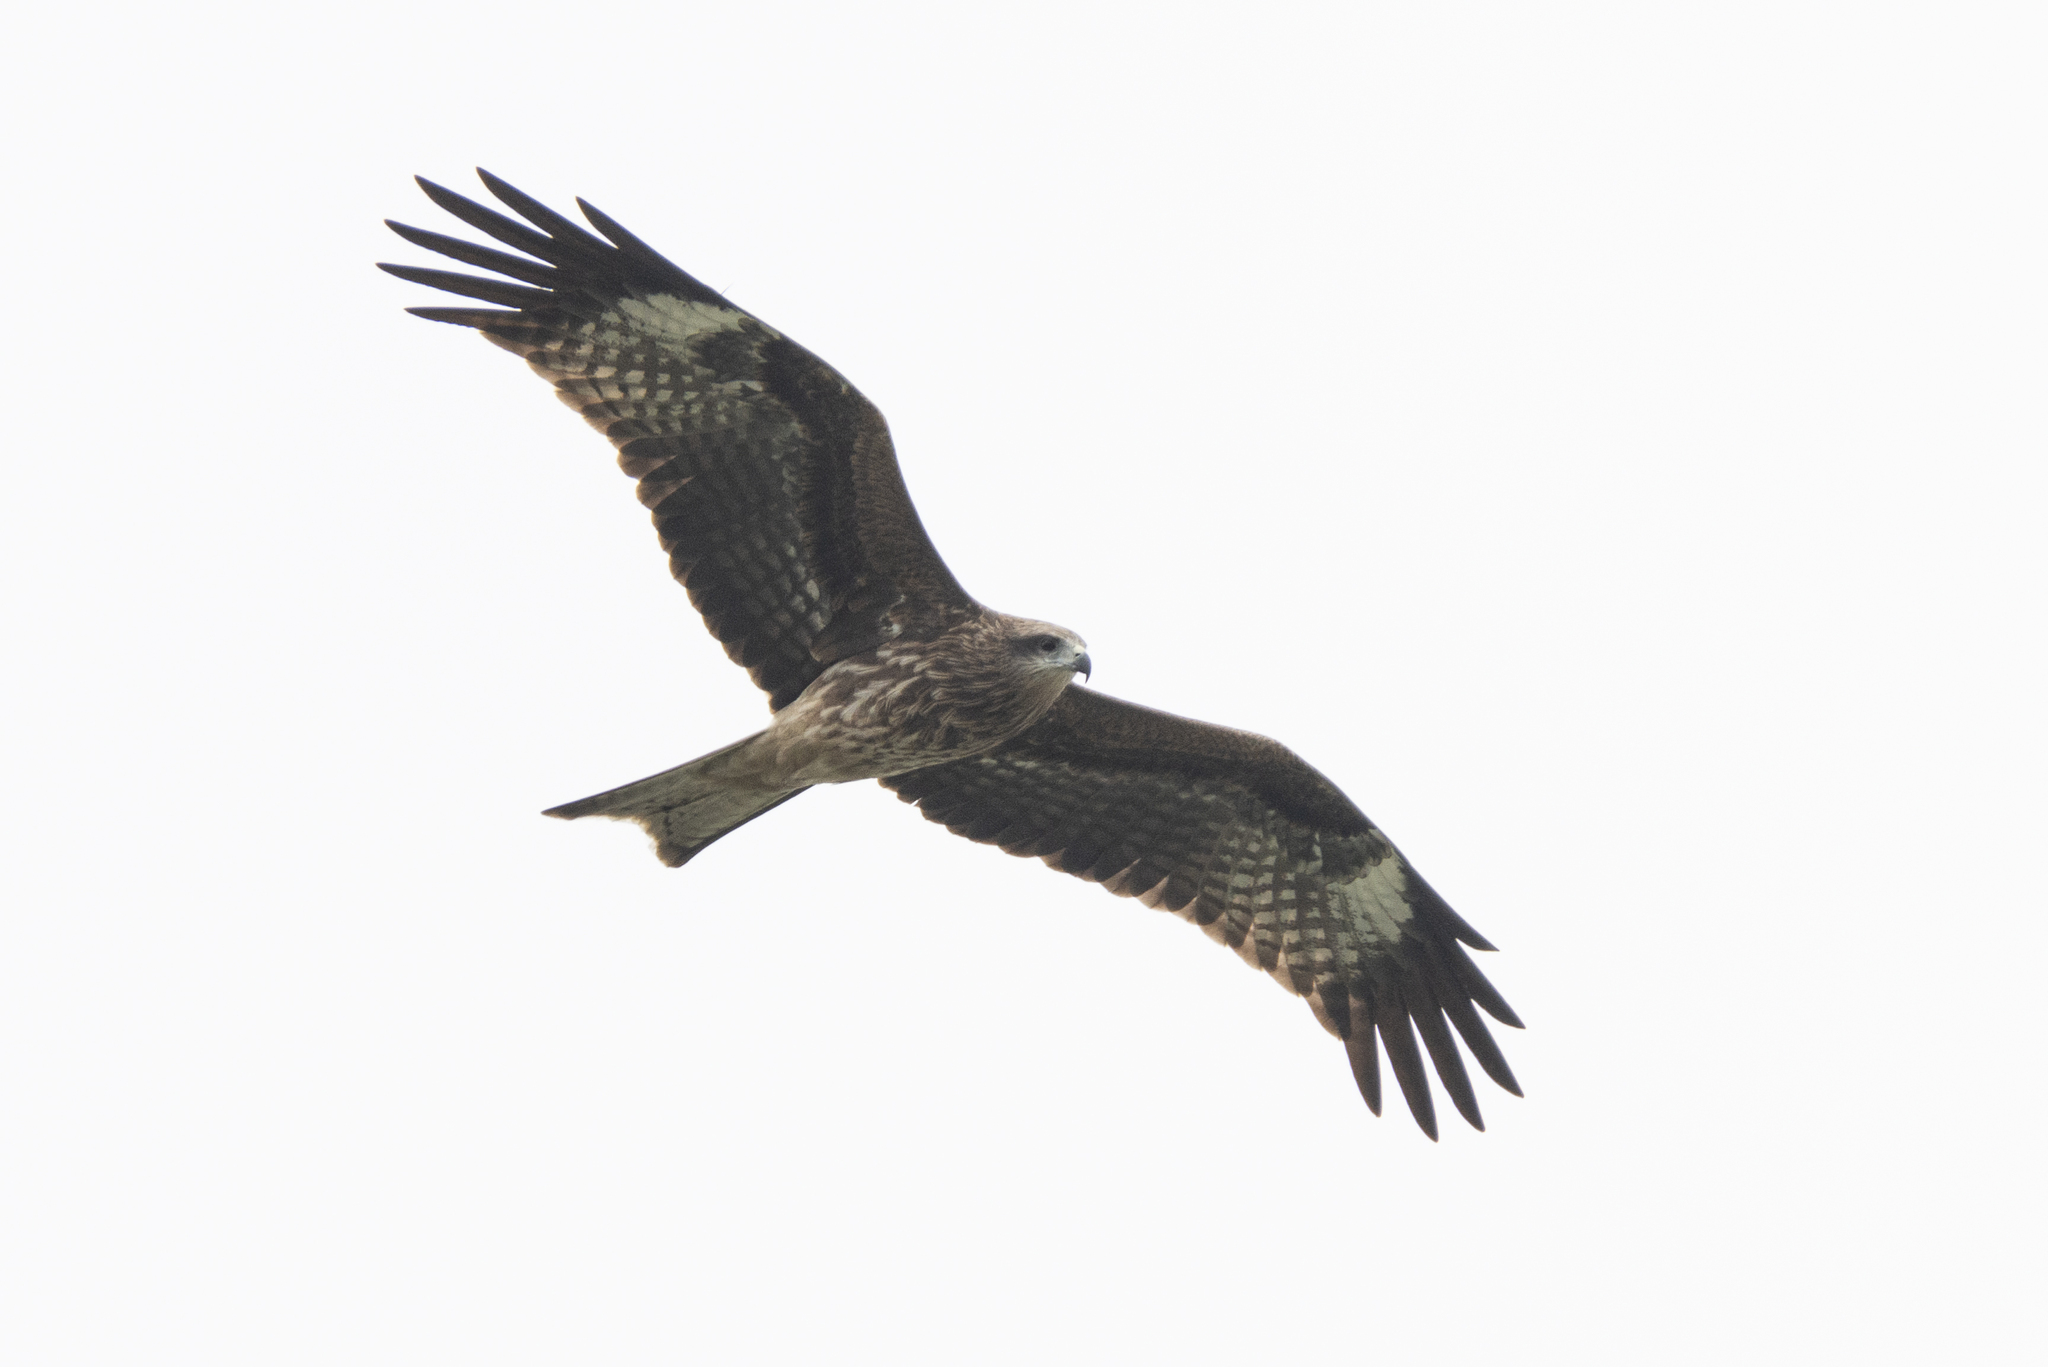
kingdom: Animalia
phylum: Chordata
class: Aves
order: Accipitriformes
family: Accipitridae
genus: Milvus
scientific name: Milvus migrans
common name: Black kite
